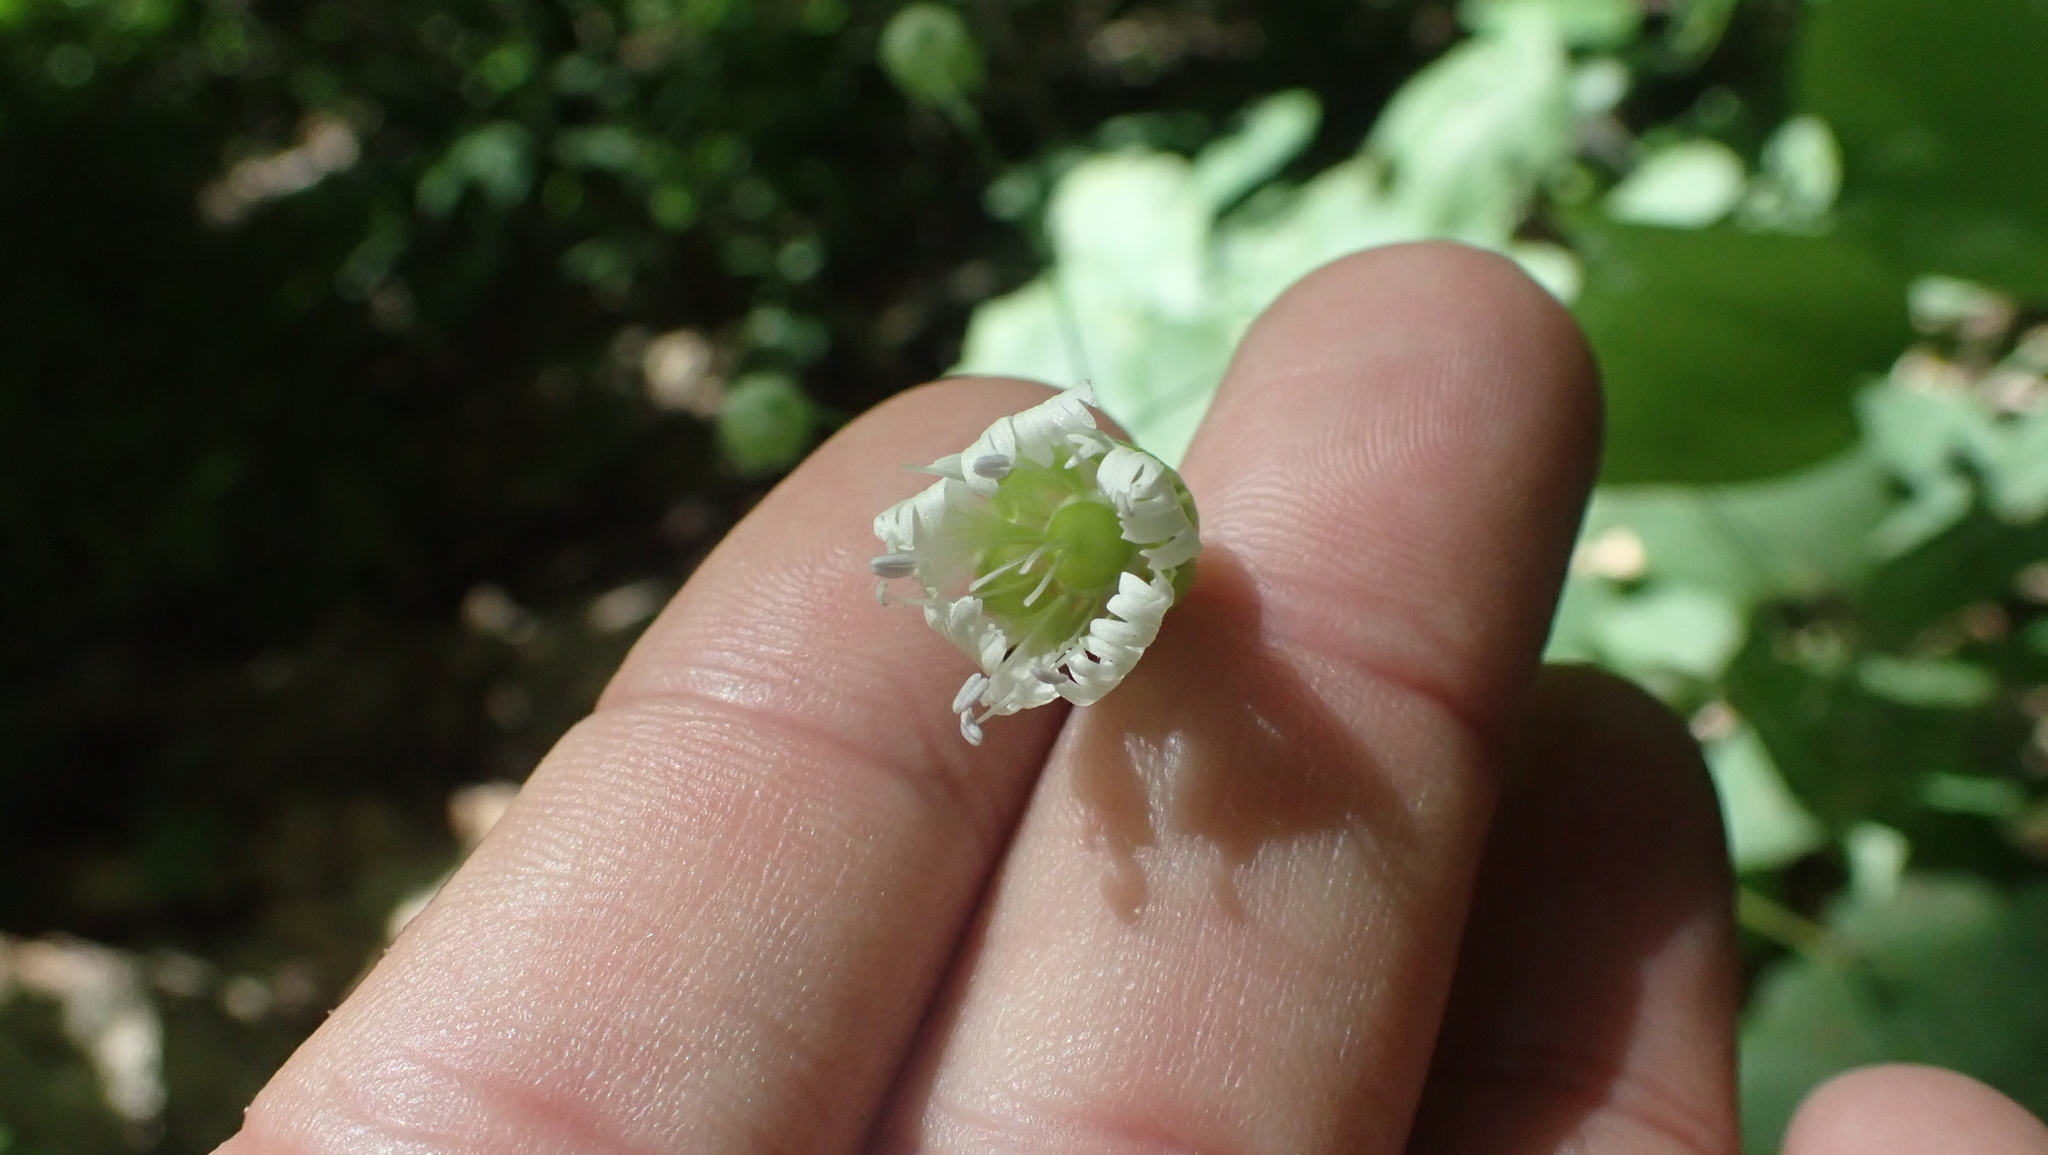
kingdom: Plantae
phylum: Tracheophyta
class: Magnoliopsida
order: Caryophyllales
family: Caryophyllaceae
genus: Silene
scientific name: Silene stellata
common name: Starry campion
